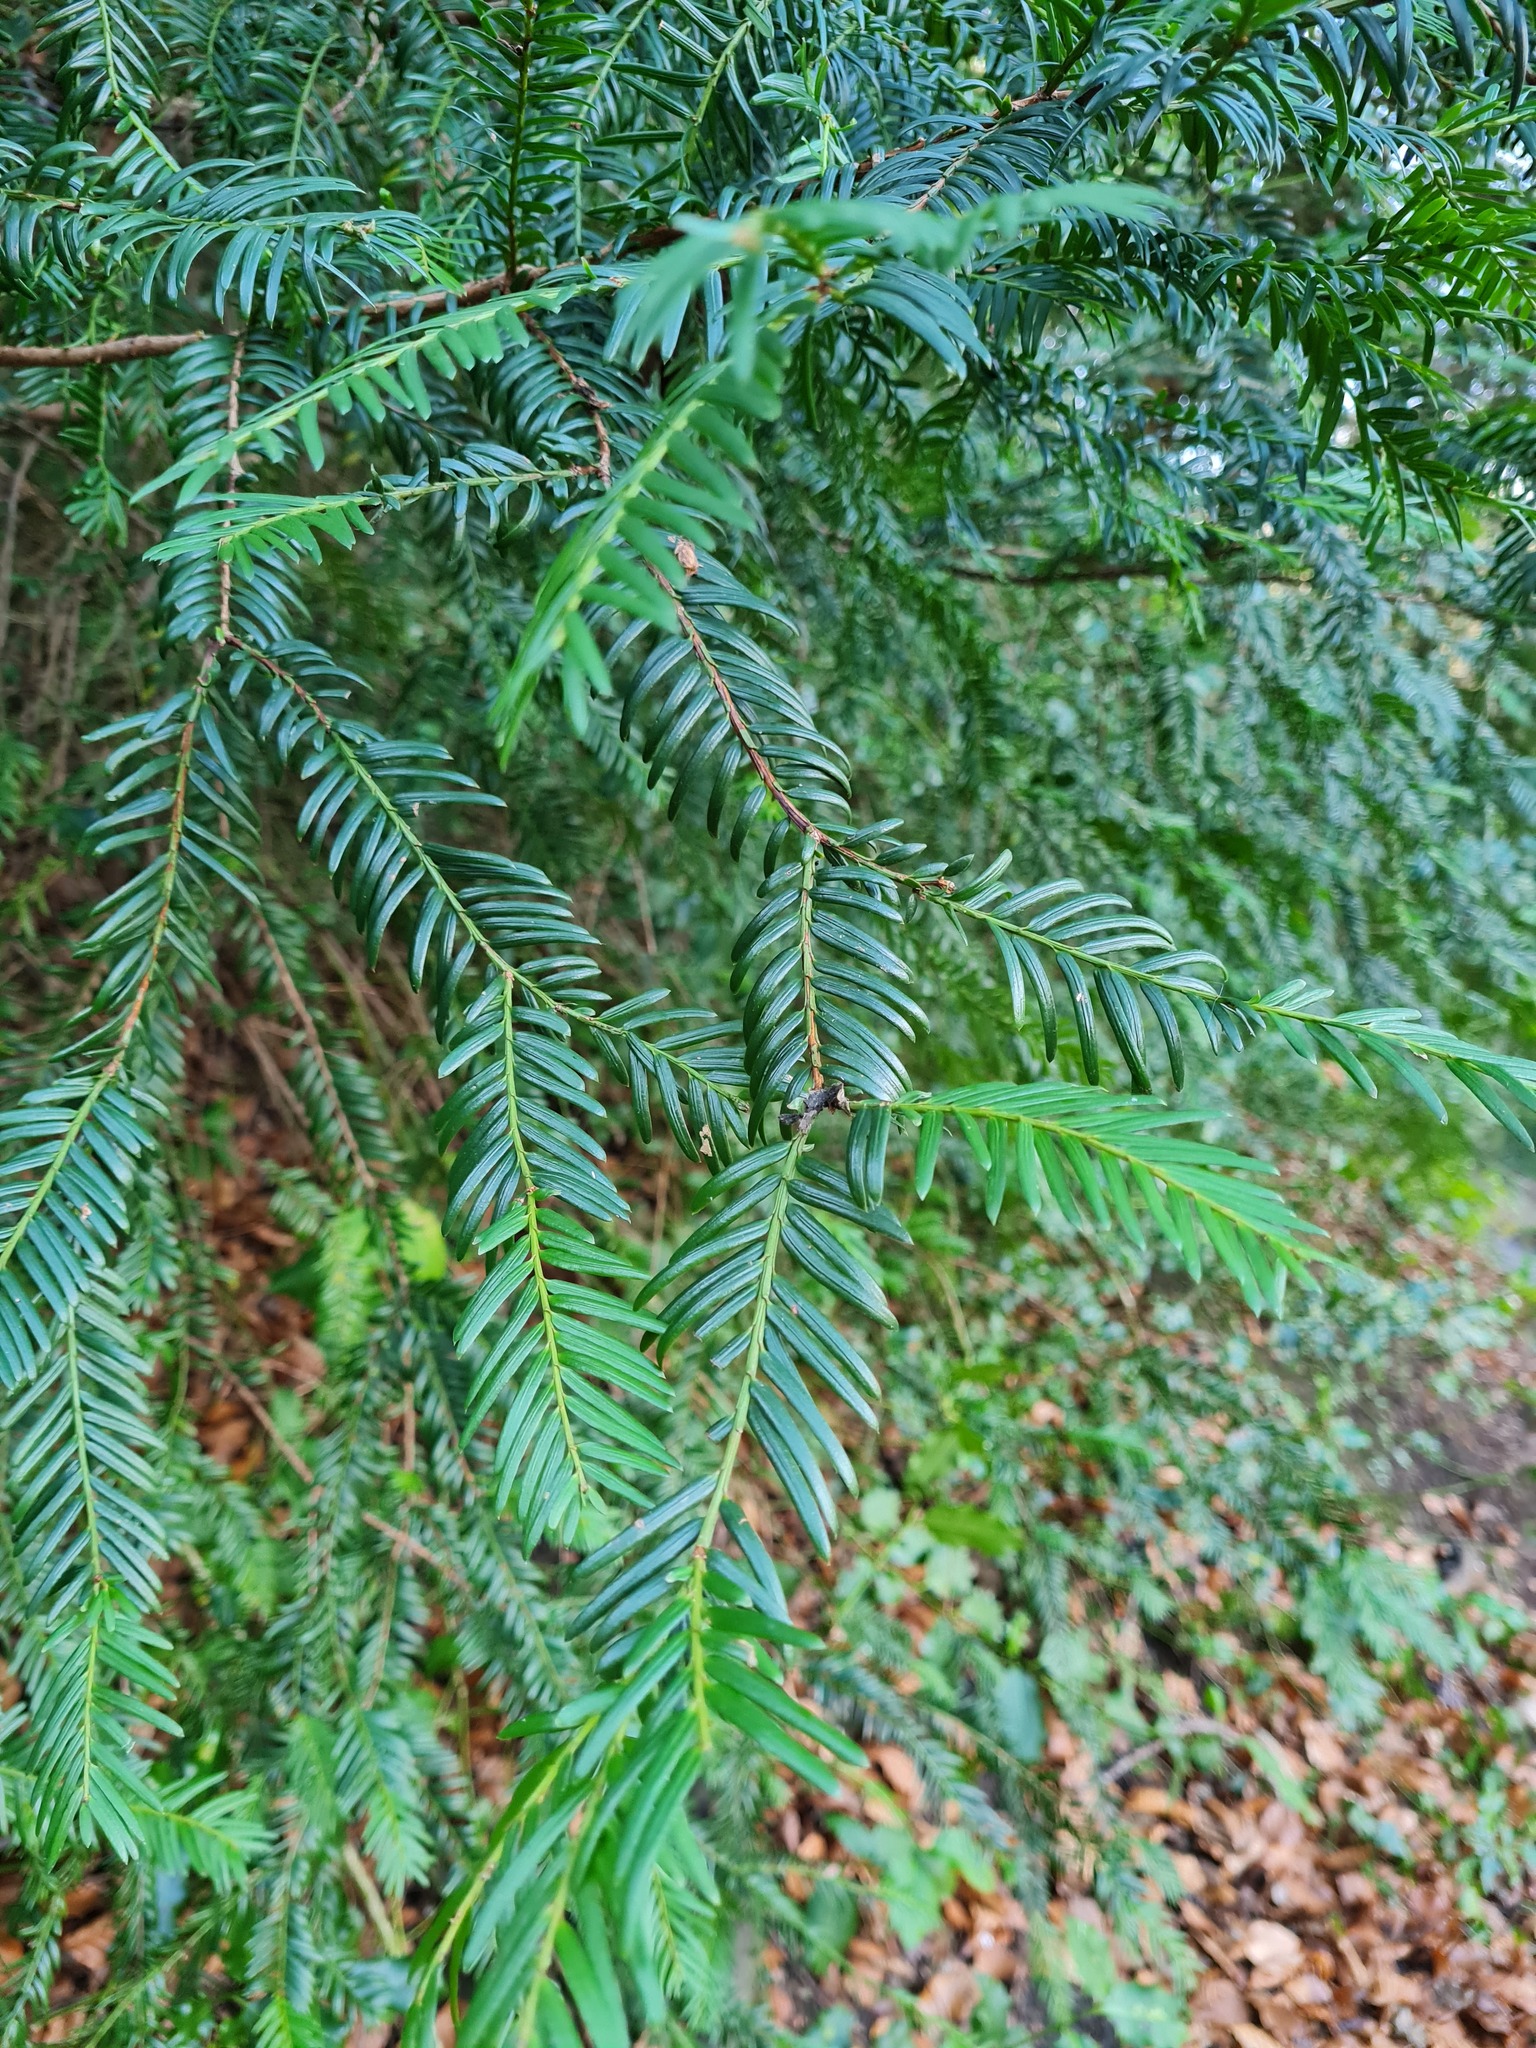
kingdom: Plantae
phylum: Tracheophyta
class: Pinopsida
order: Pinales
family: Taxaceae
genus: Taxus
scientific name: Taxus baccata
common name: Yew
